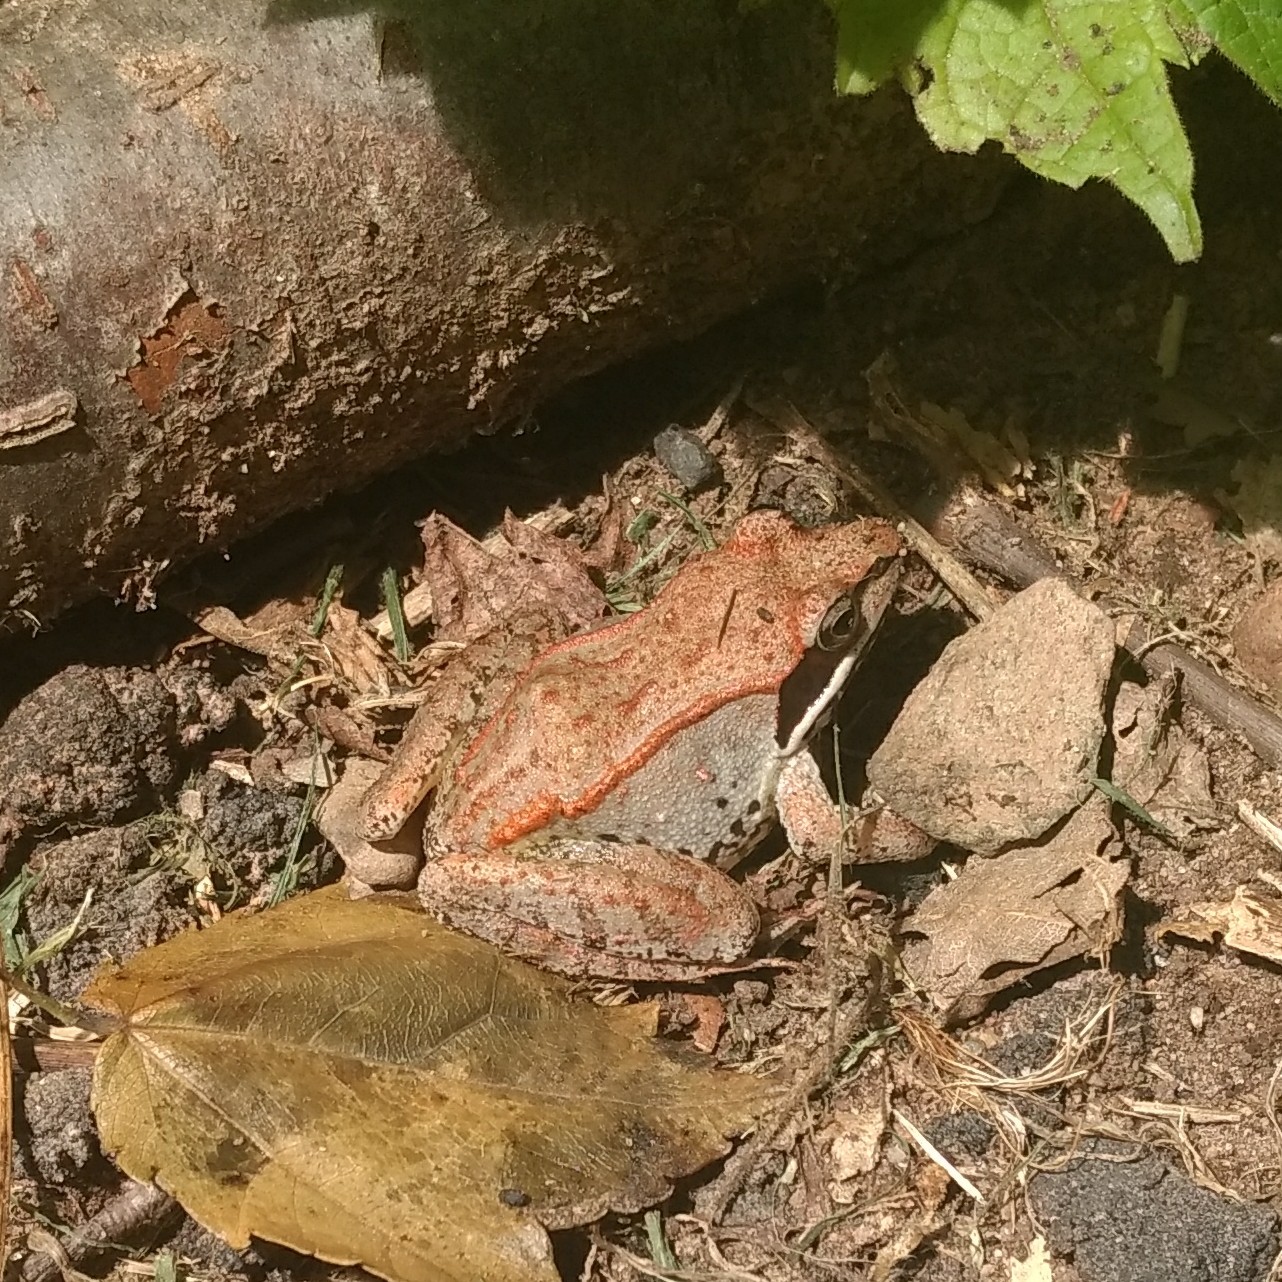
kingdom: Animalia
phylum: Chordata
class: Amphibia
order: Anura
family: Ranidae
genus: Lithobates
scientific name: Lithobates sylvaticus
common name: Wood frog
